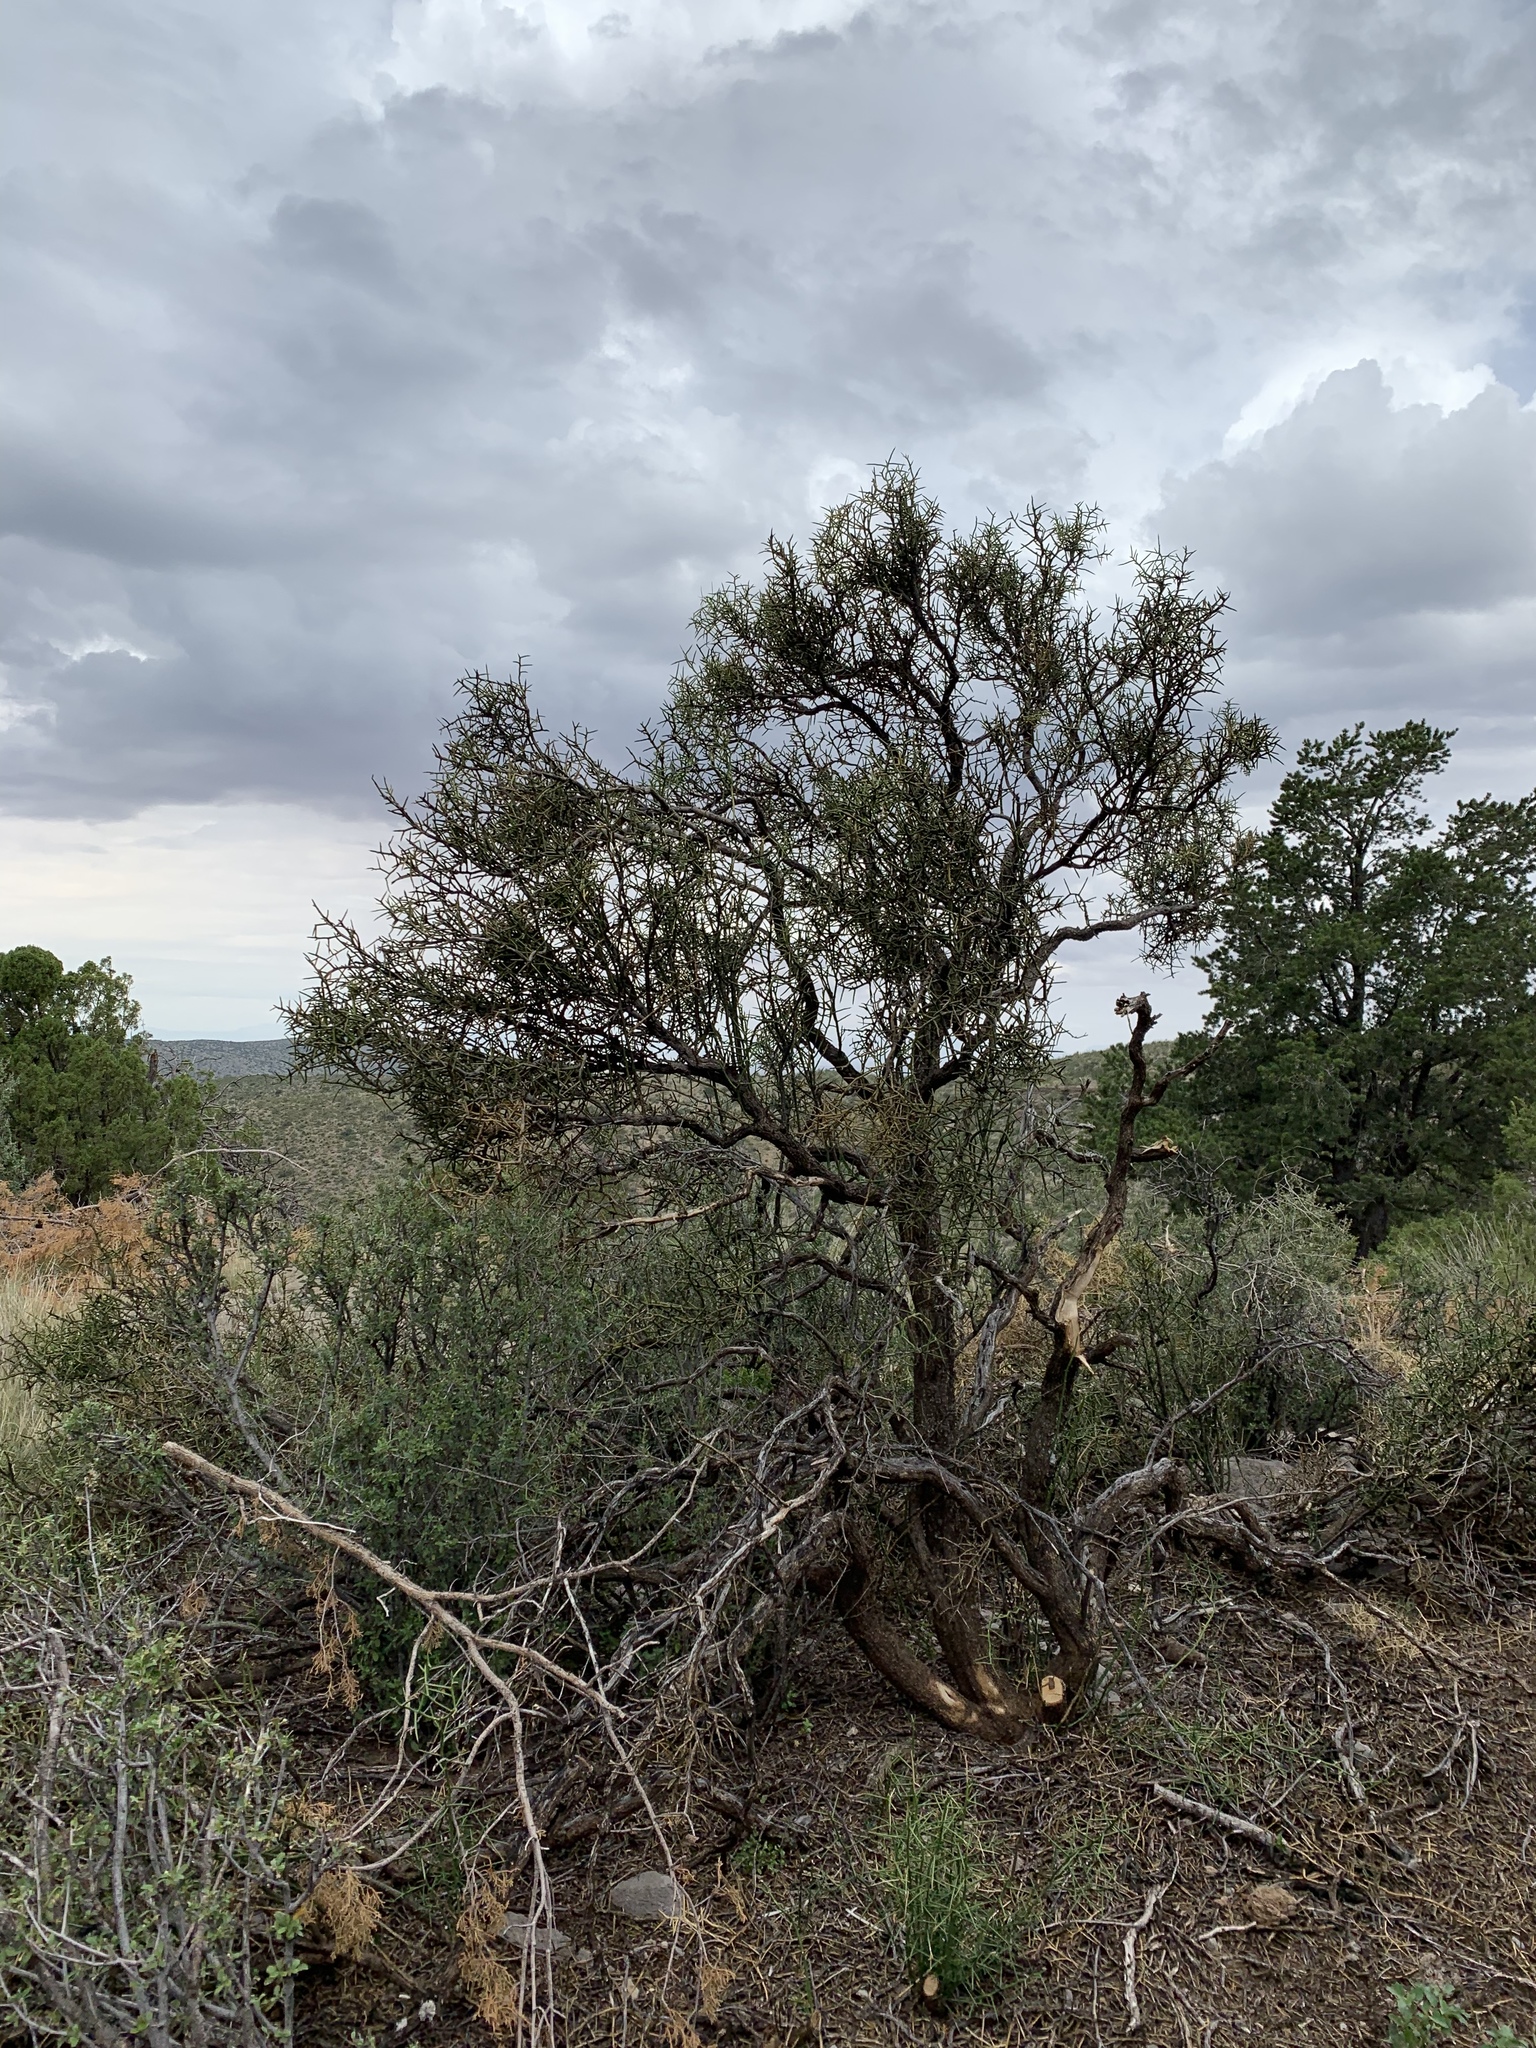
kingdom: Plantae
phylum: Tracheophyta
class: Magnoliopsida
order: Brassicales
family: Koeberliniaceae
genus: Koeberlinia
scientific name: Koeberlinia spinosa
